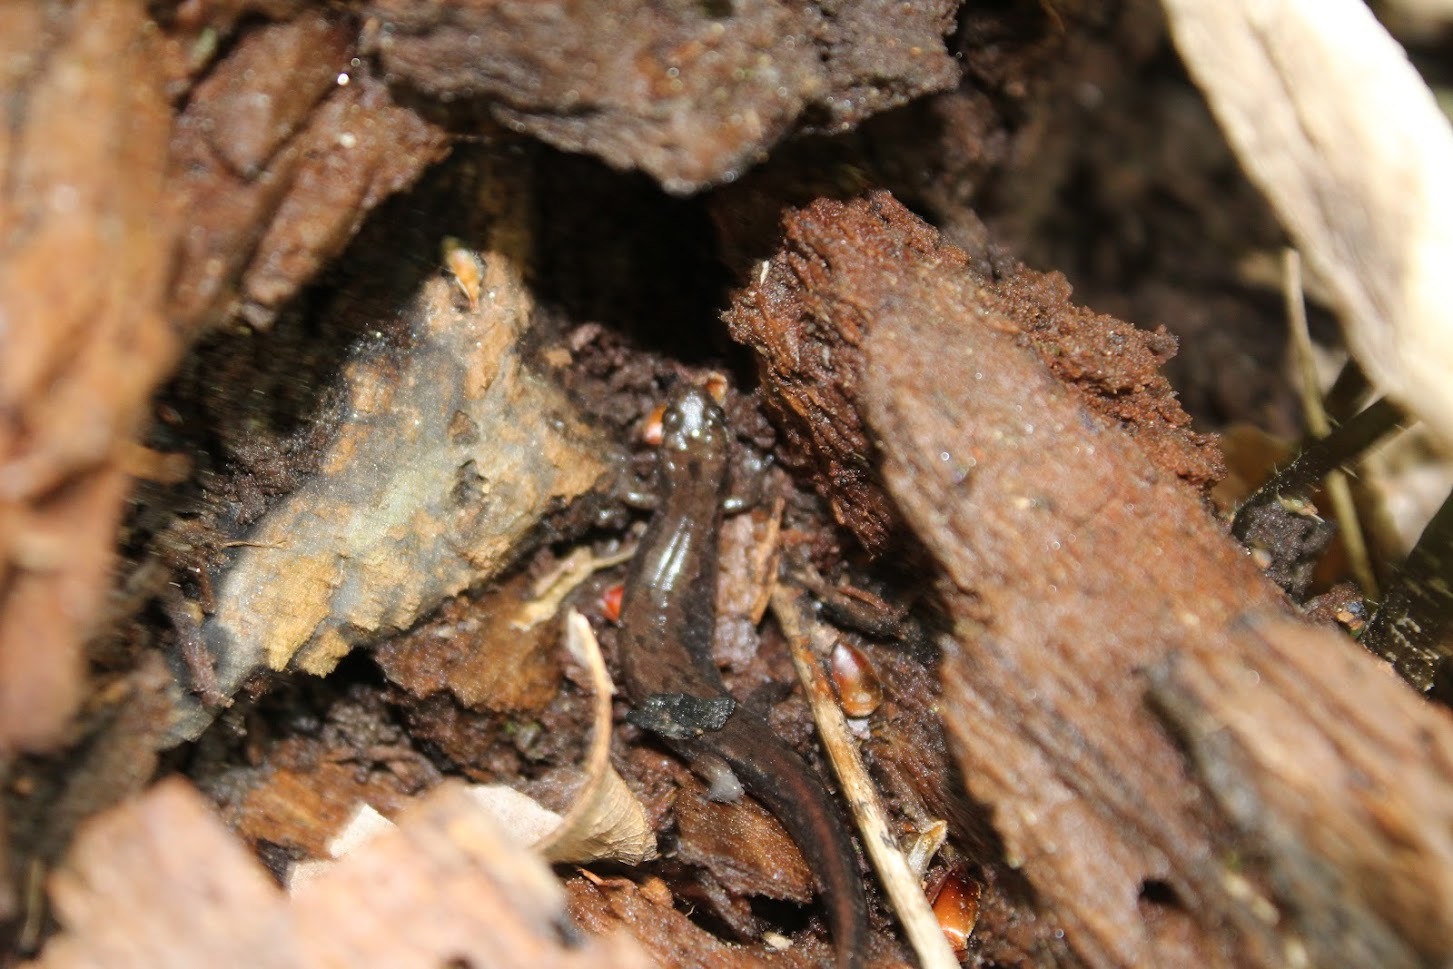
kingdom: Animalia
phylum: Chordata
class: Amphibia
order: Caudata
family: Plethodontidae
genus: Desmognathus
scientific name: Desmognathus carolinensis
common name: Carolina mountain dusky salamander
